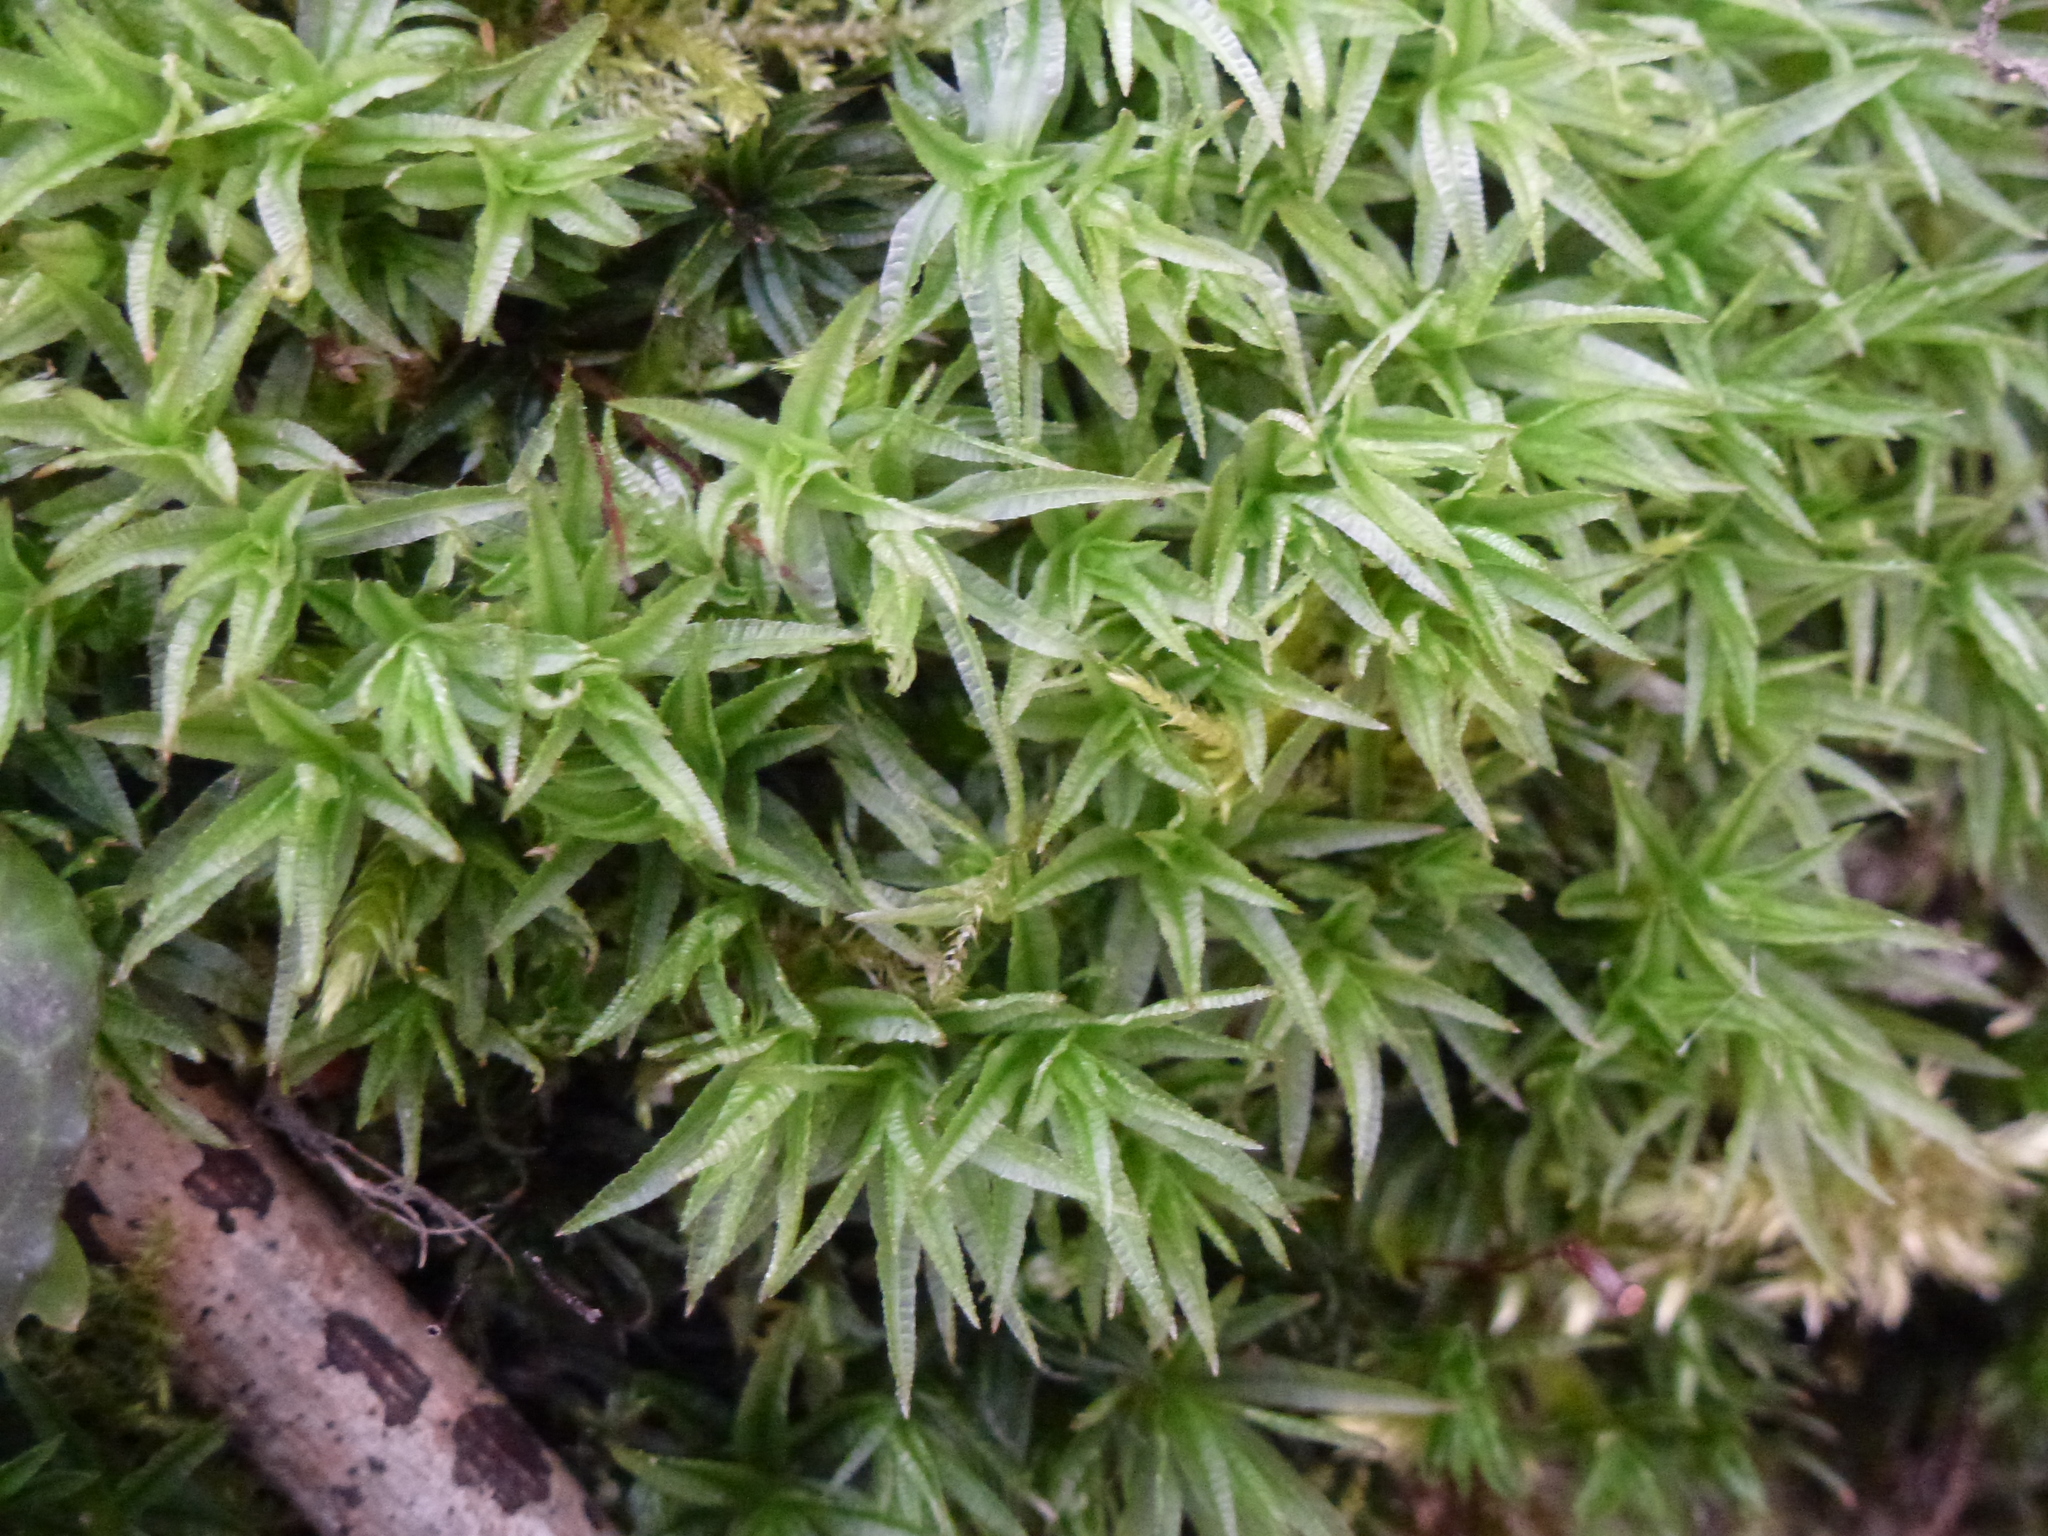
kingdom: Plantae
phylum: Bryophyta
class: Polytrichopsida
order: Polytrichales
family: Polytrichaceae
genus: Atrichum
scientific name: Atrichum undulatum
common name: Common smoothcap
